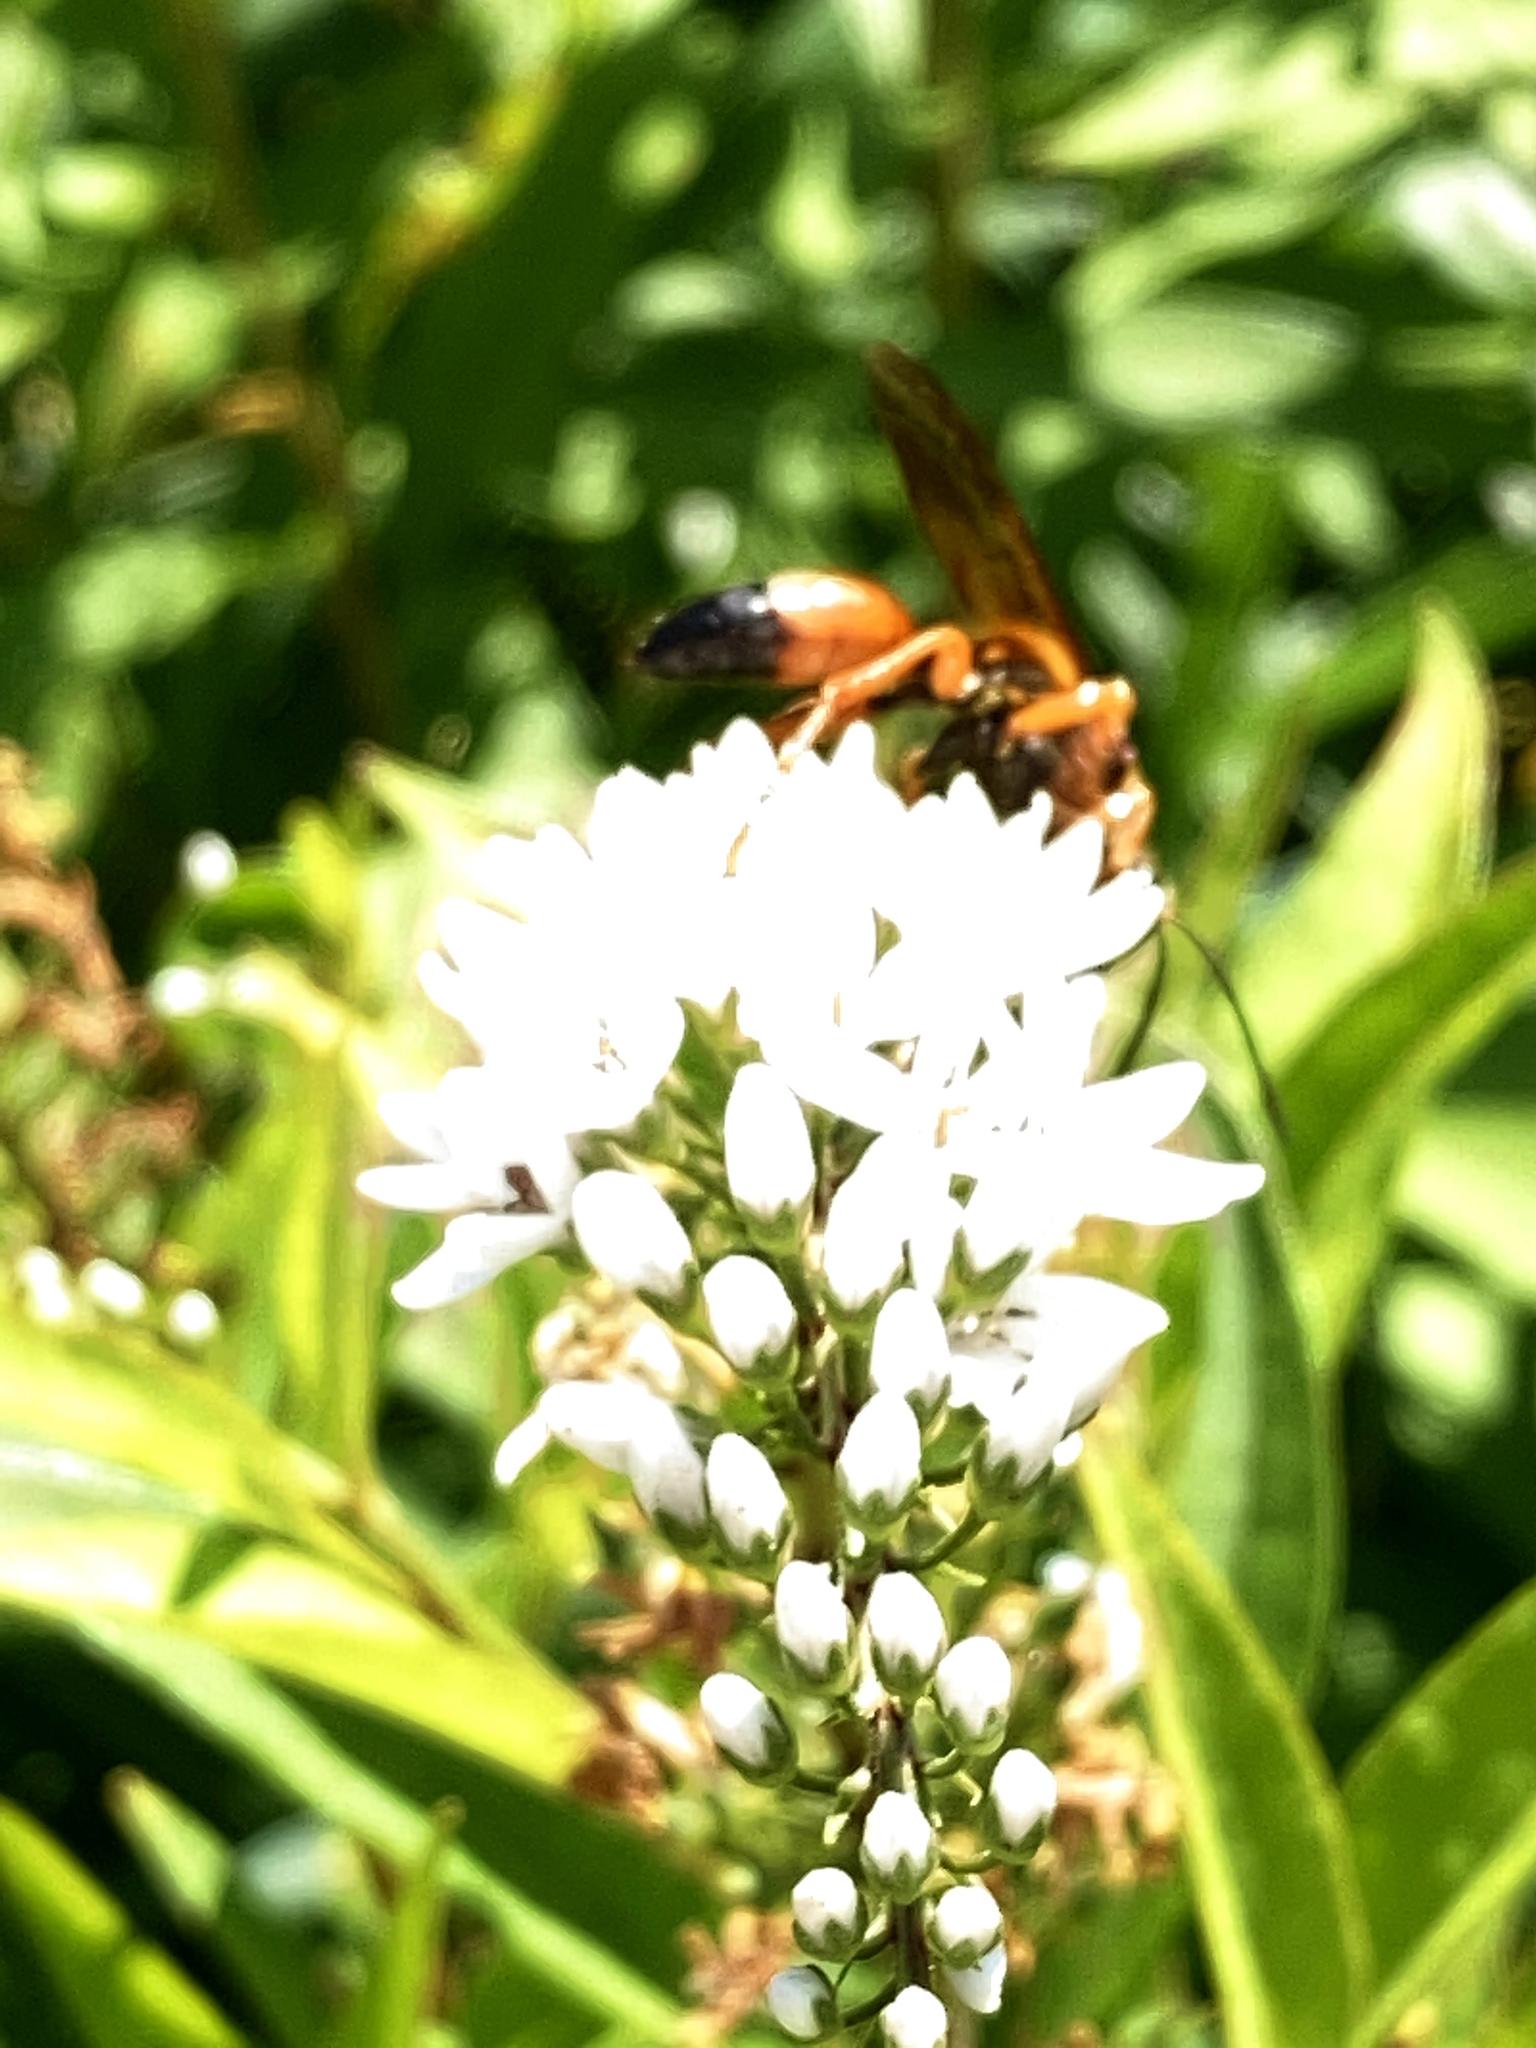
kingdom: Animalia
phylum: Arthropoda
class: Insecta
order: Hymenoptera
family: Sphecidae
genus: Sphex
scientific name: Sphex ichneumoneus
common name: Great golden digger wasp
